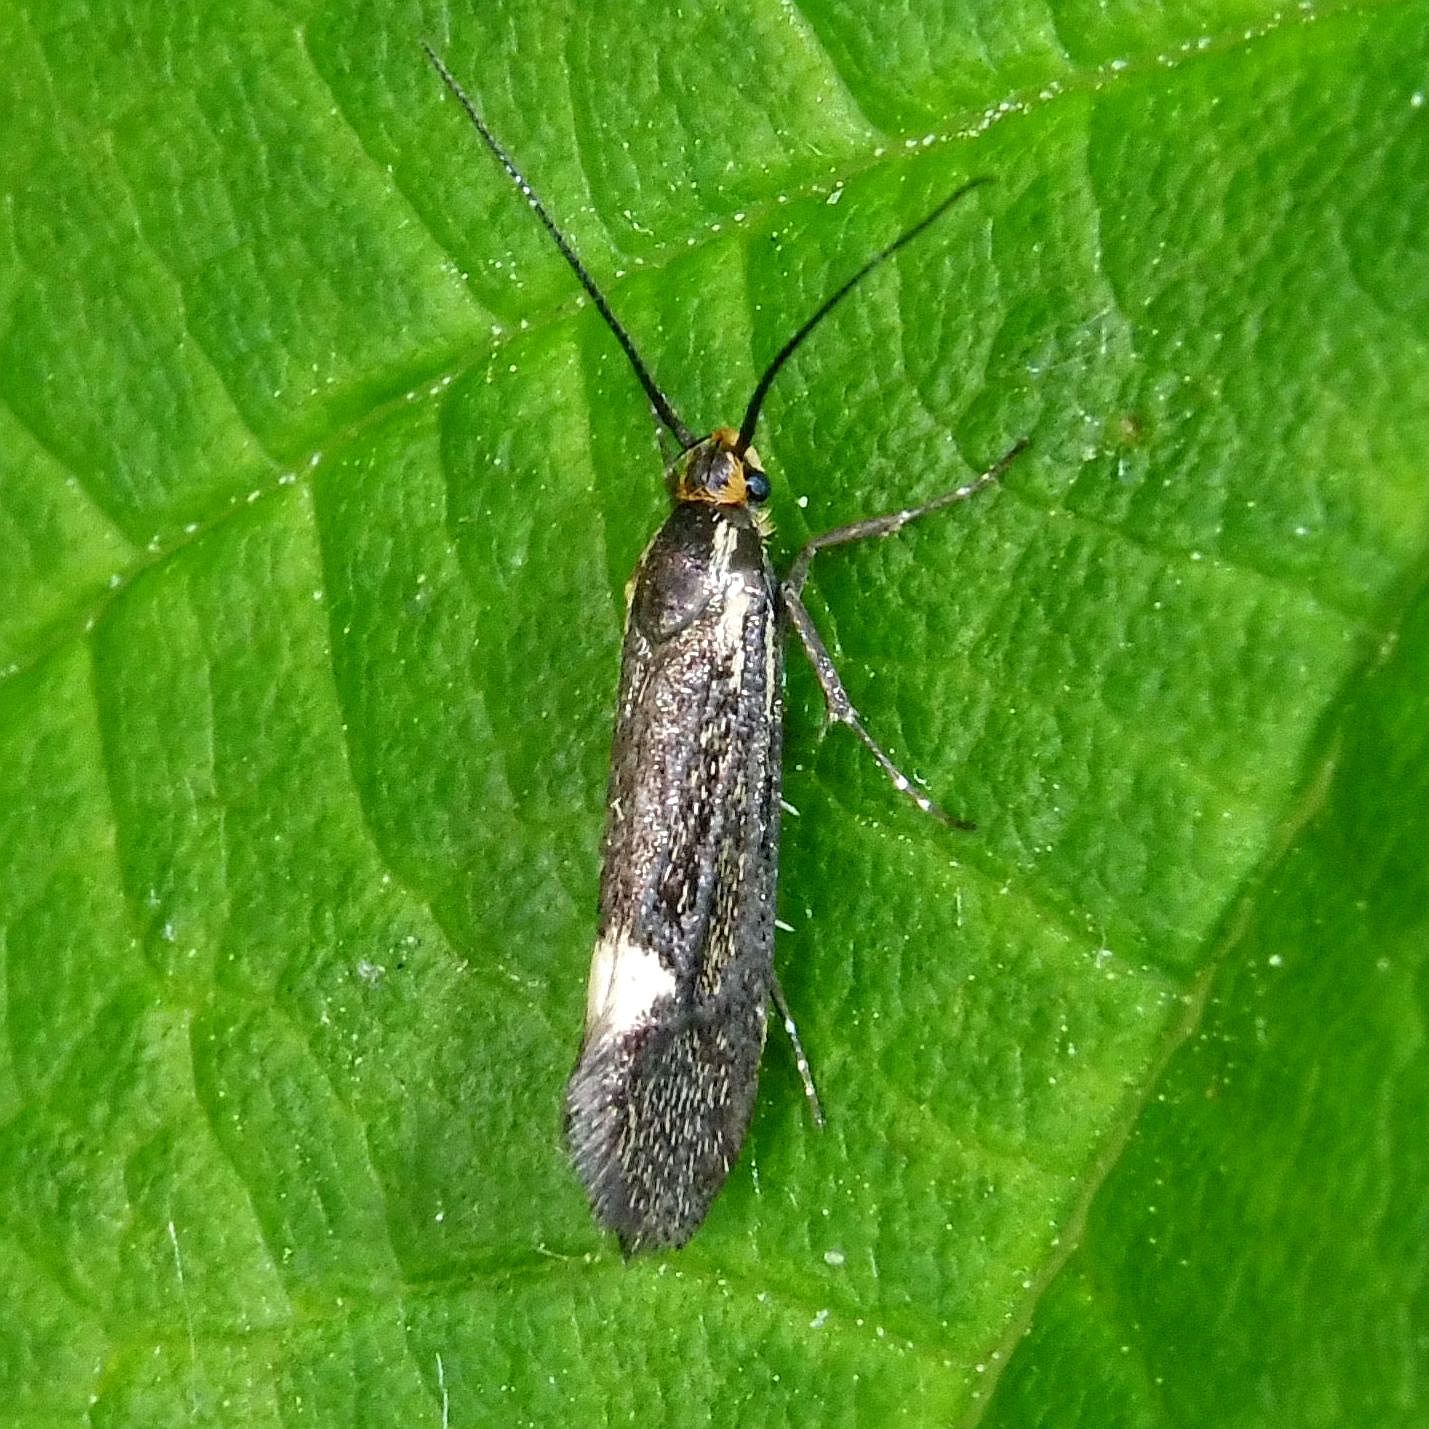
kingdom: Animalia
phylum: Arthropoda
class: Insecta
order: Lepidoptera
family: Oecophoridae
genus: Dafa
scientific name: Dafa Esperia sulphurella
